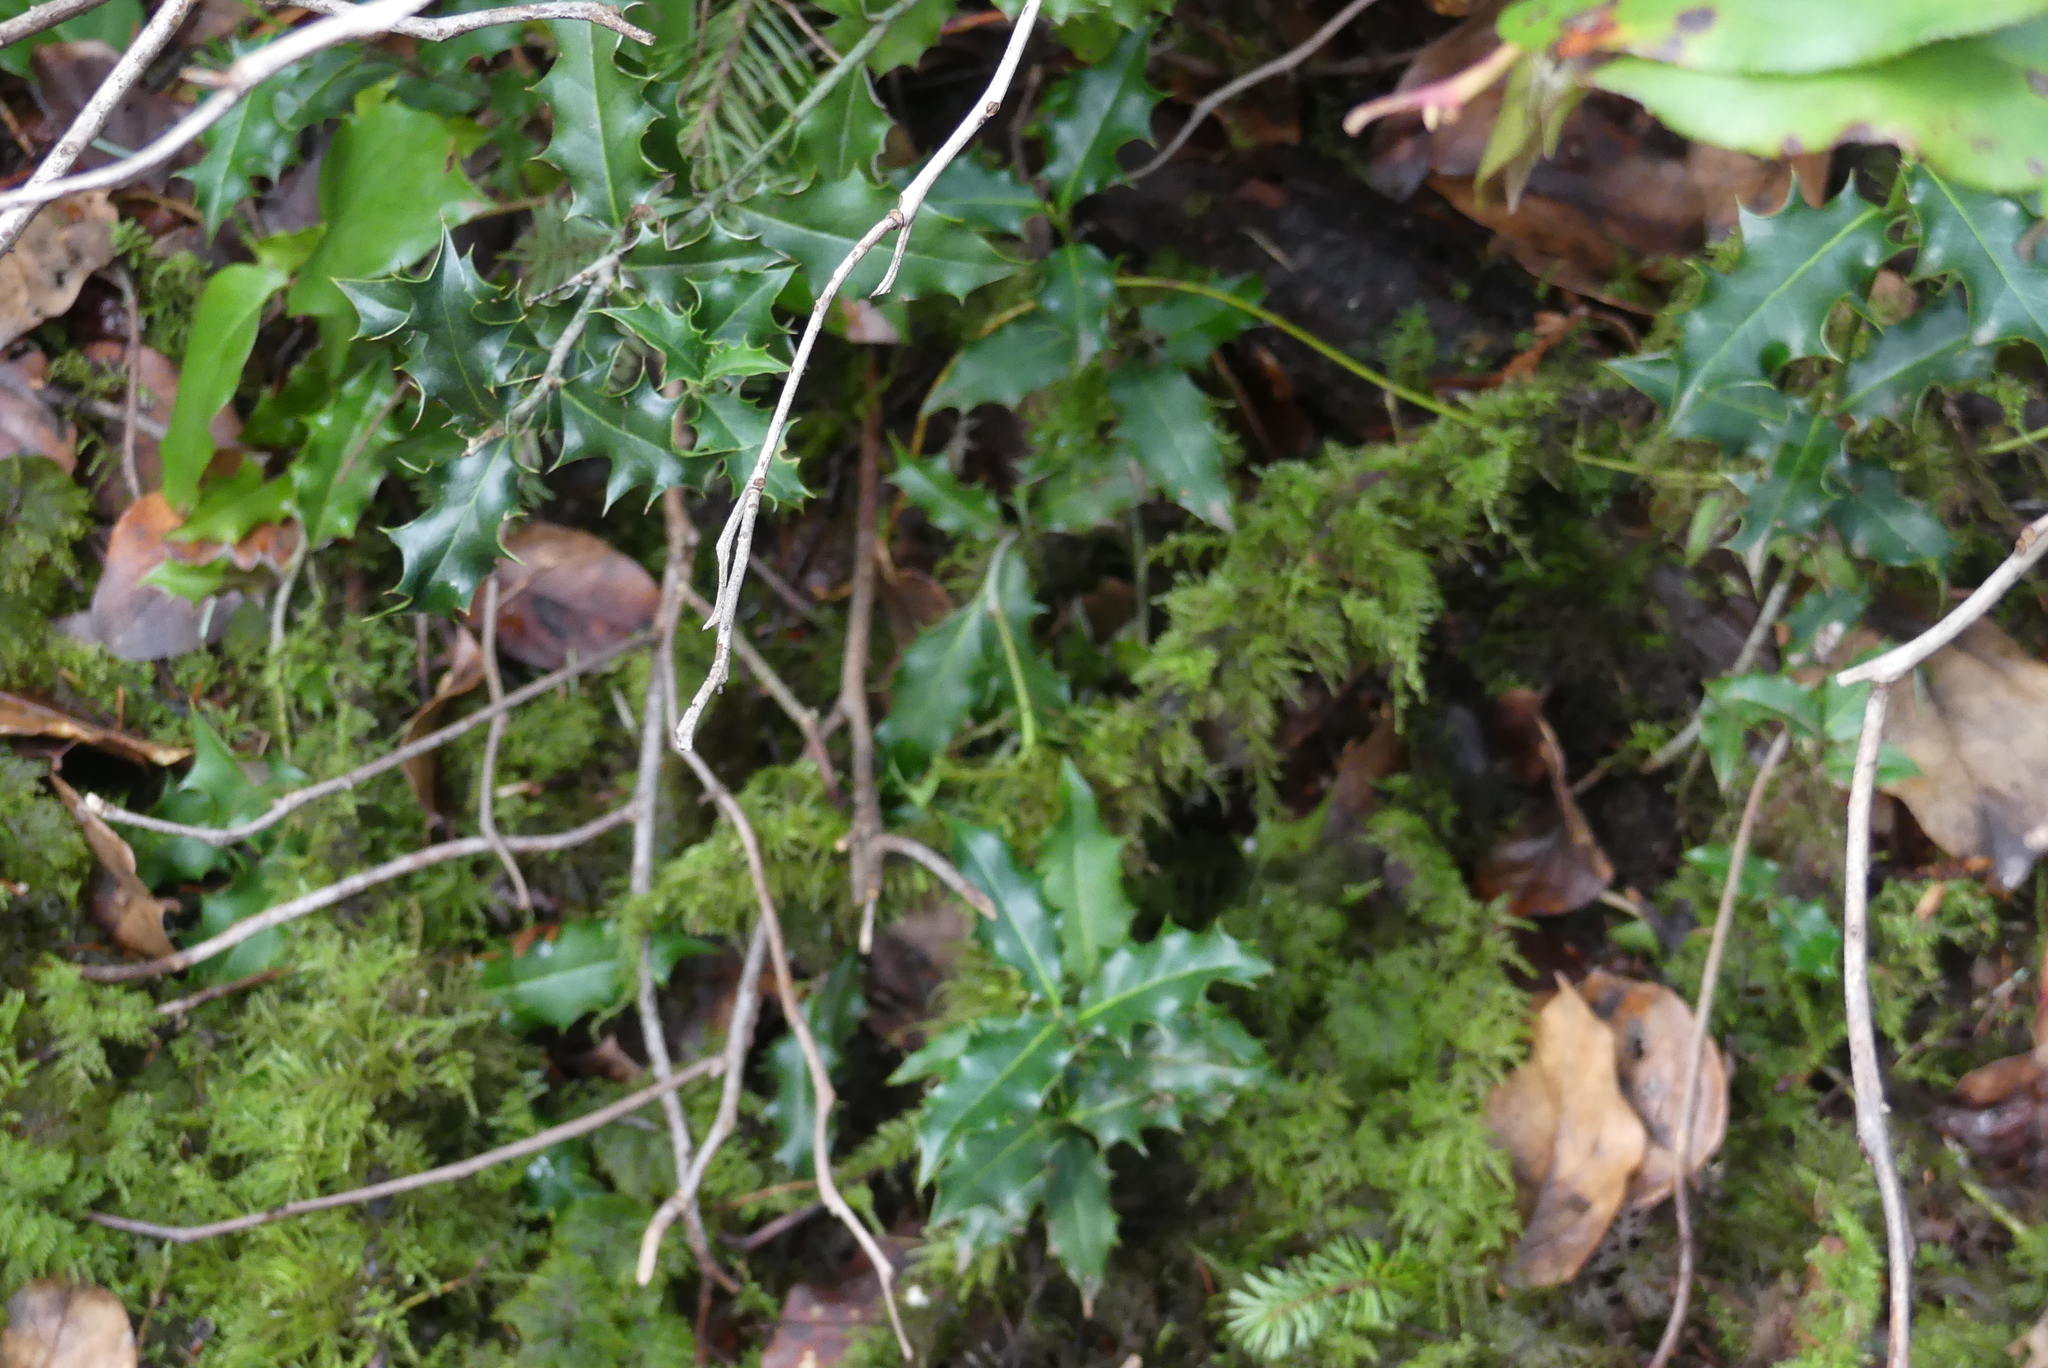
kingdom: Plantae
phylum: Tracheophyta
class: Magnoliopsida
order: Aquifoliales
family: Aquifoliaceae
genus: Ilex
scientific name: Ilex aquifolium
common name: English holly
